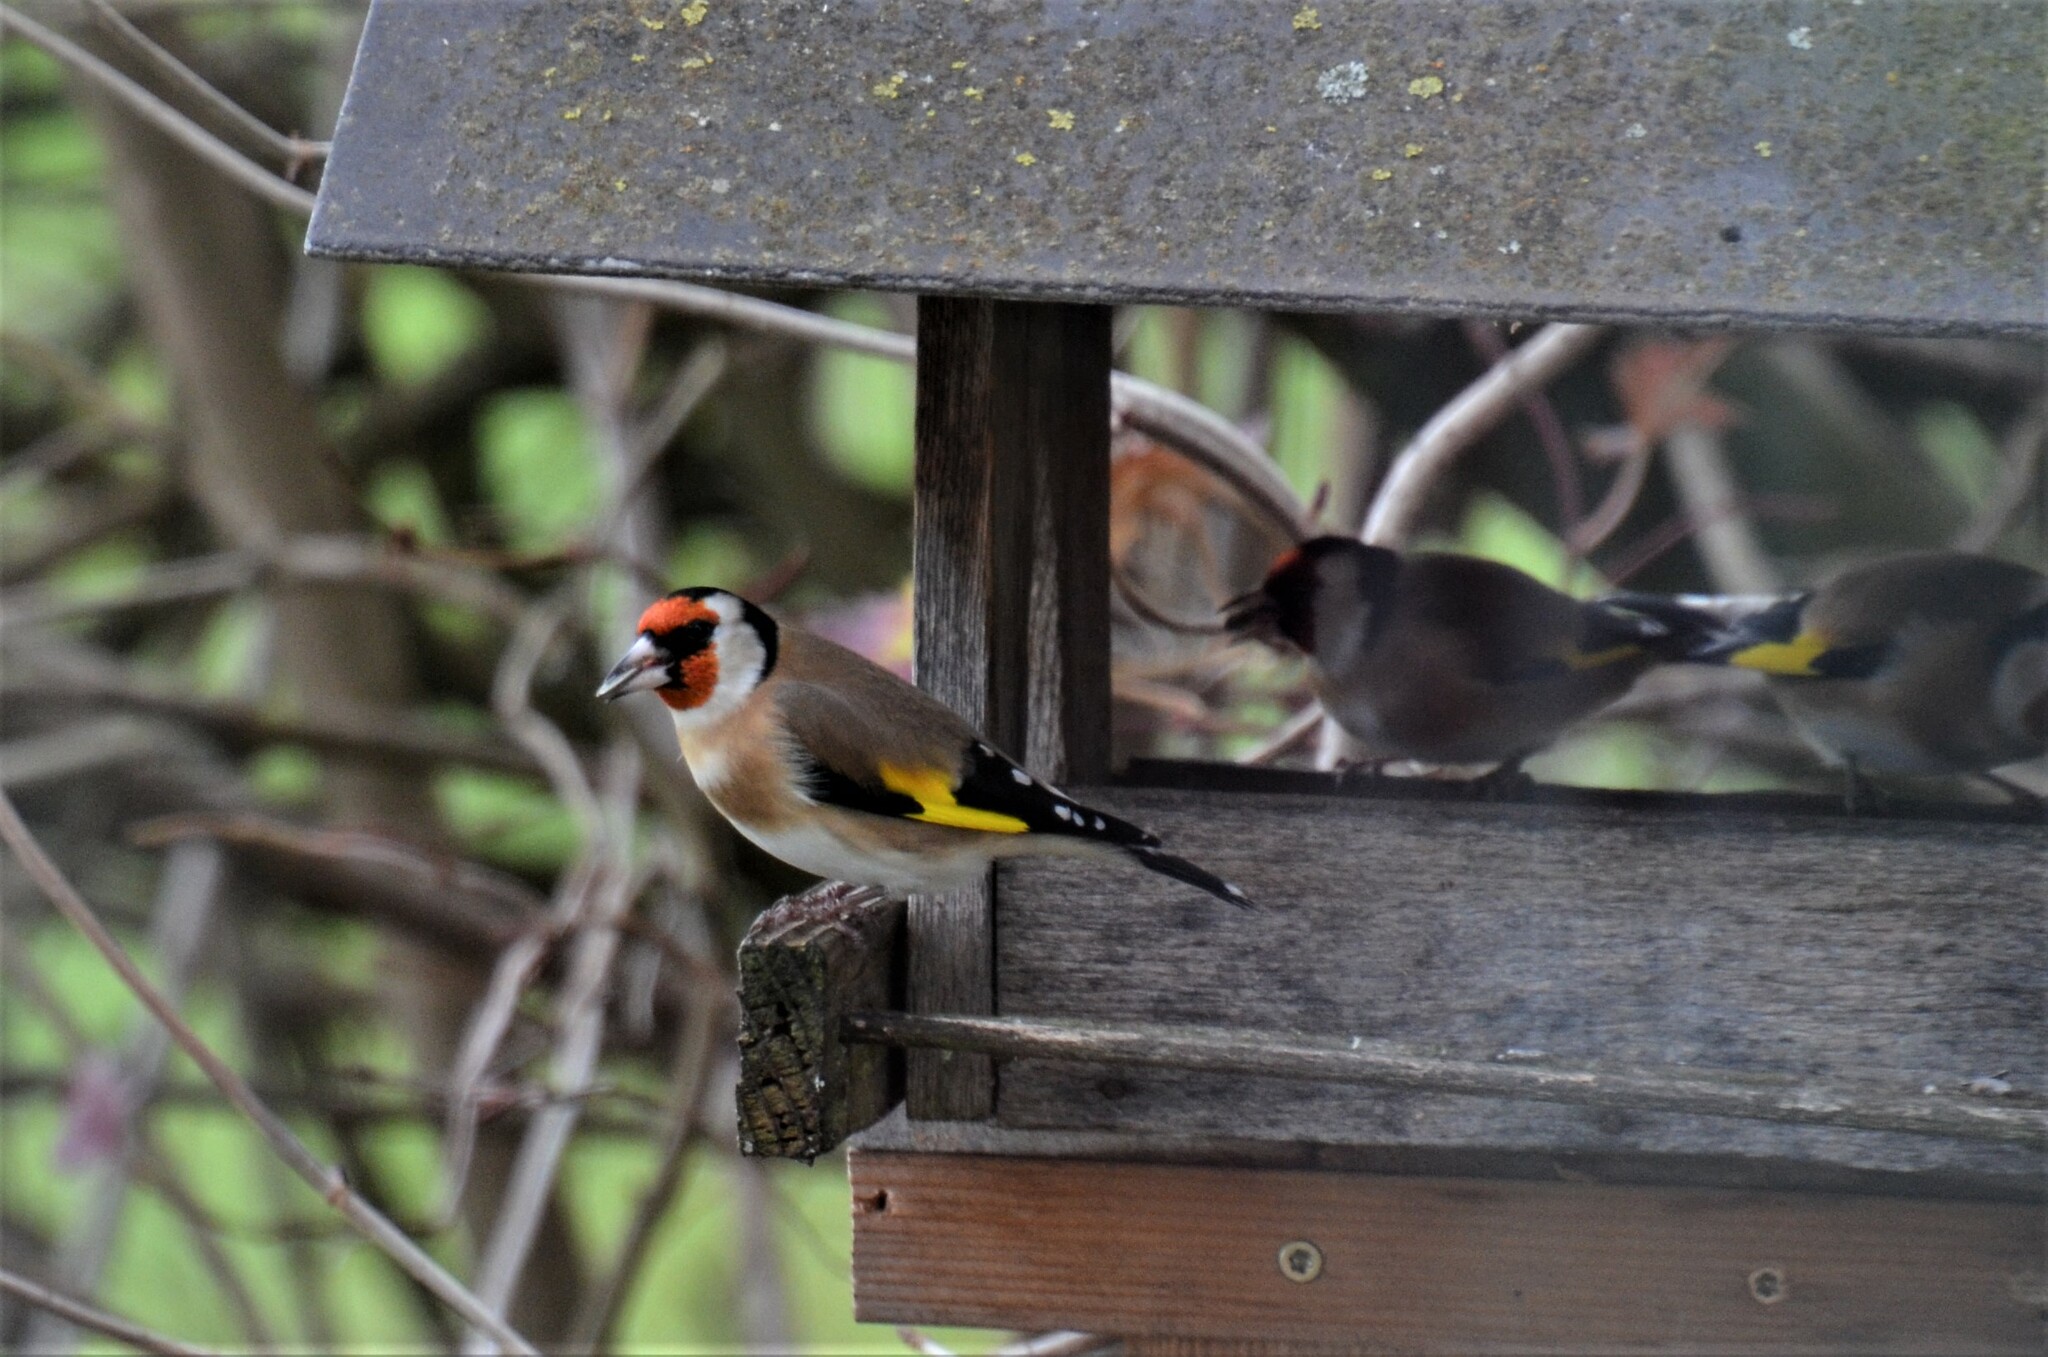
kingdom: Animalia
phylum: Chordata
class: Aves
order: Passeriformes
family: Fringillidae
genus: Carduelis
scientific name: Carduelis carduelis
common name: European goldfinch
